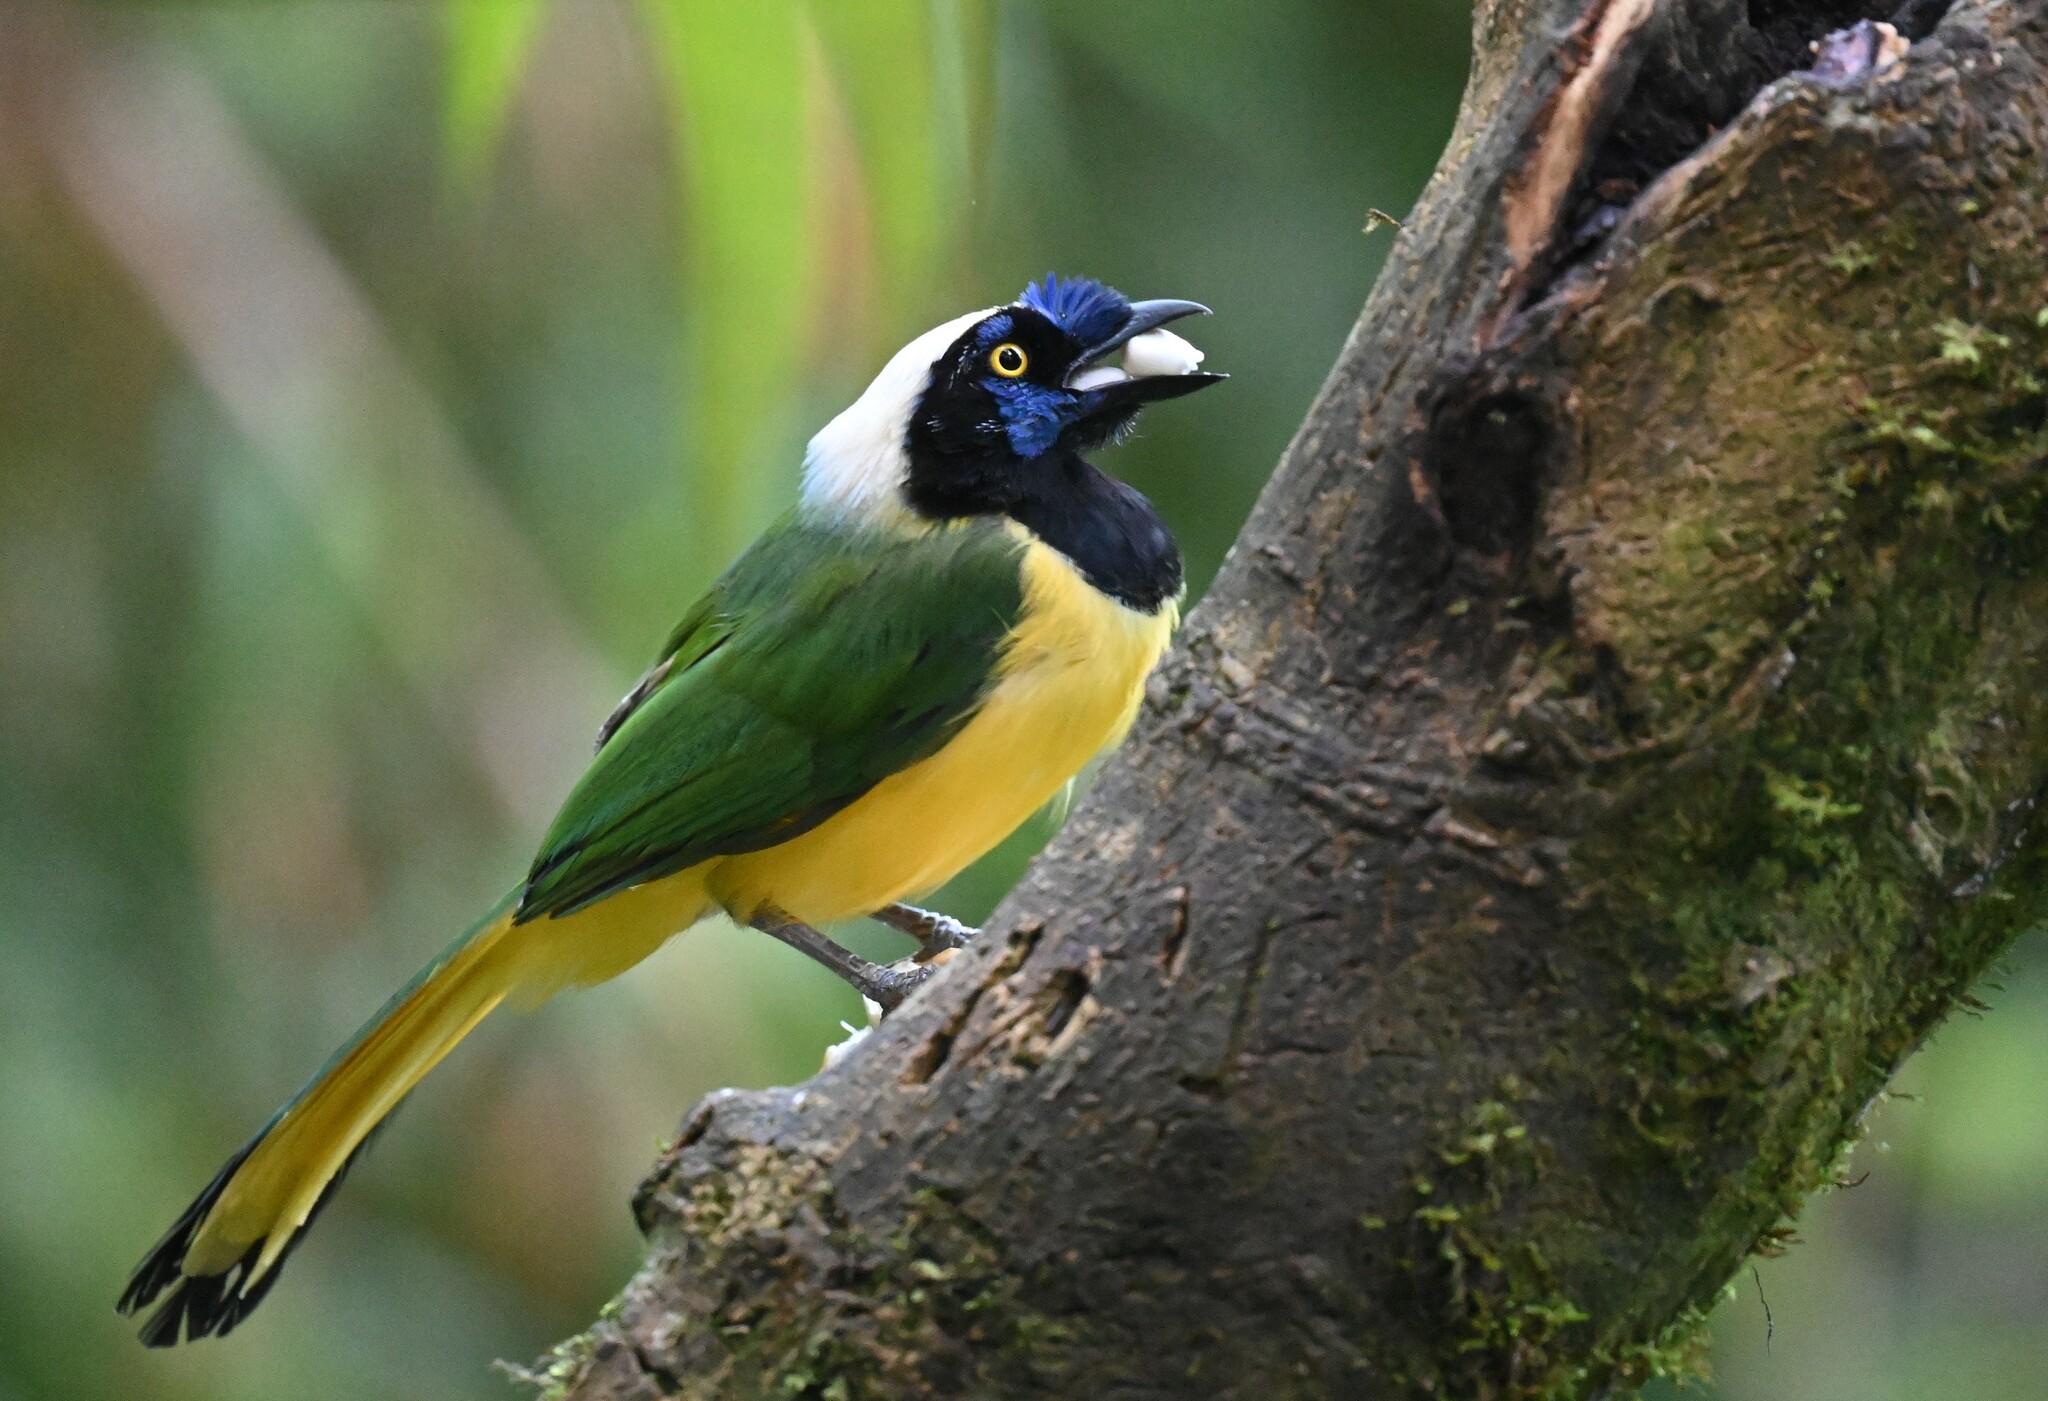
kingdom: Animalia
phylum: Chordata
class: Aves
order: Passeriformes
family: Corvidae
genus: Cyanocorax
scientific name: Cyanocorax yncas
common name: Green jay
